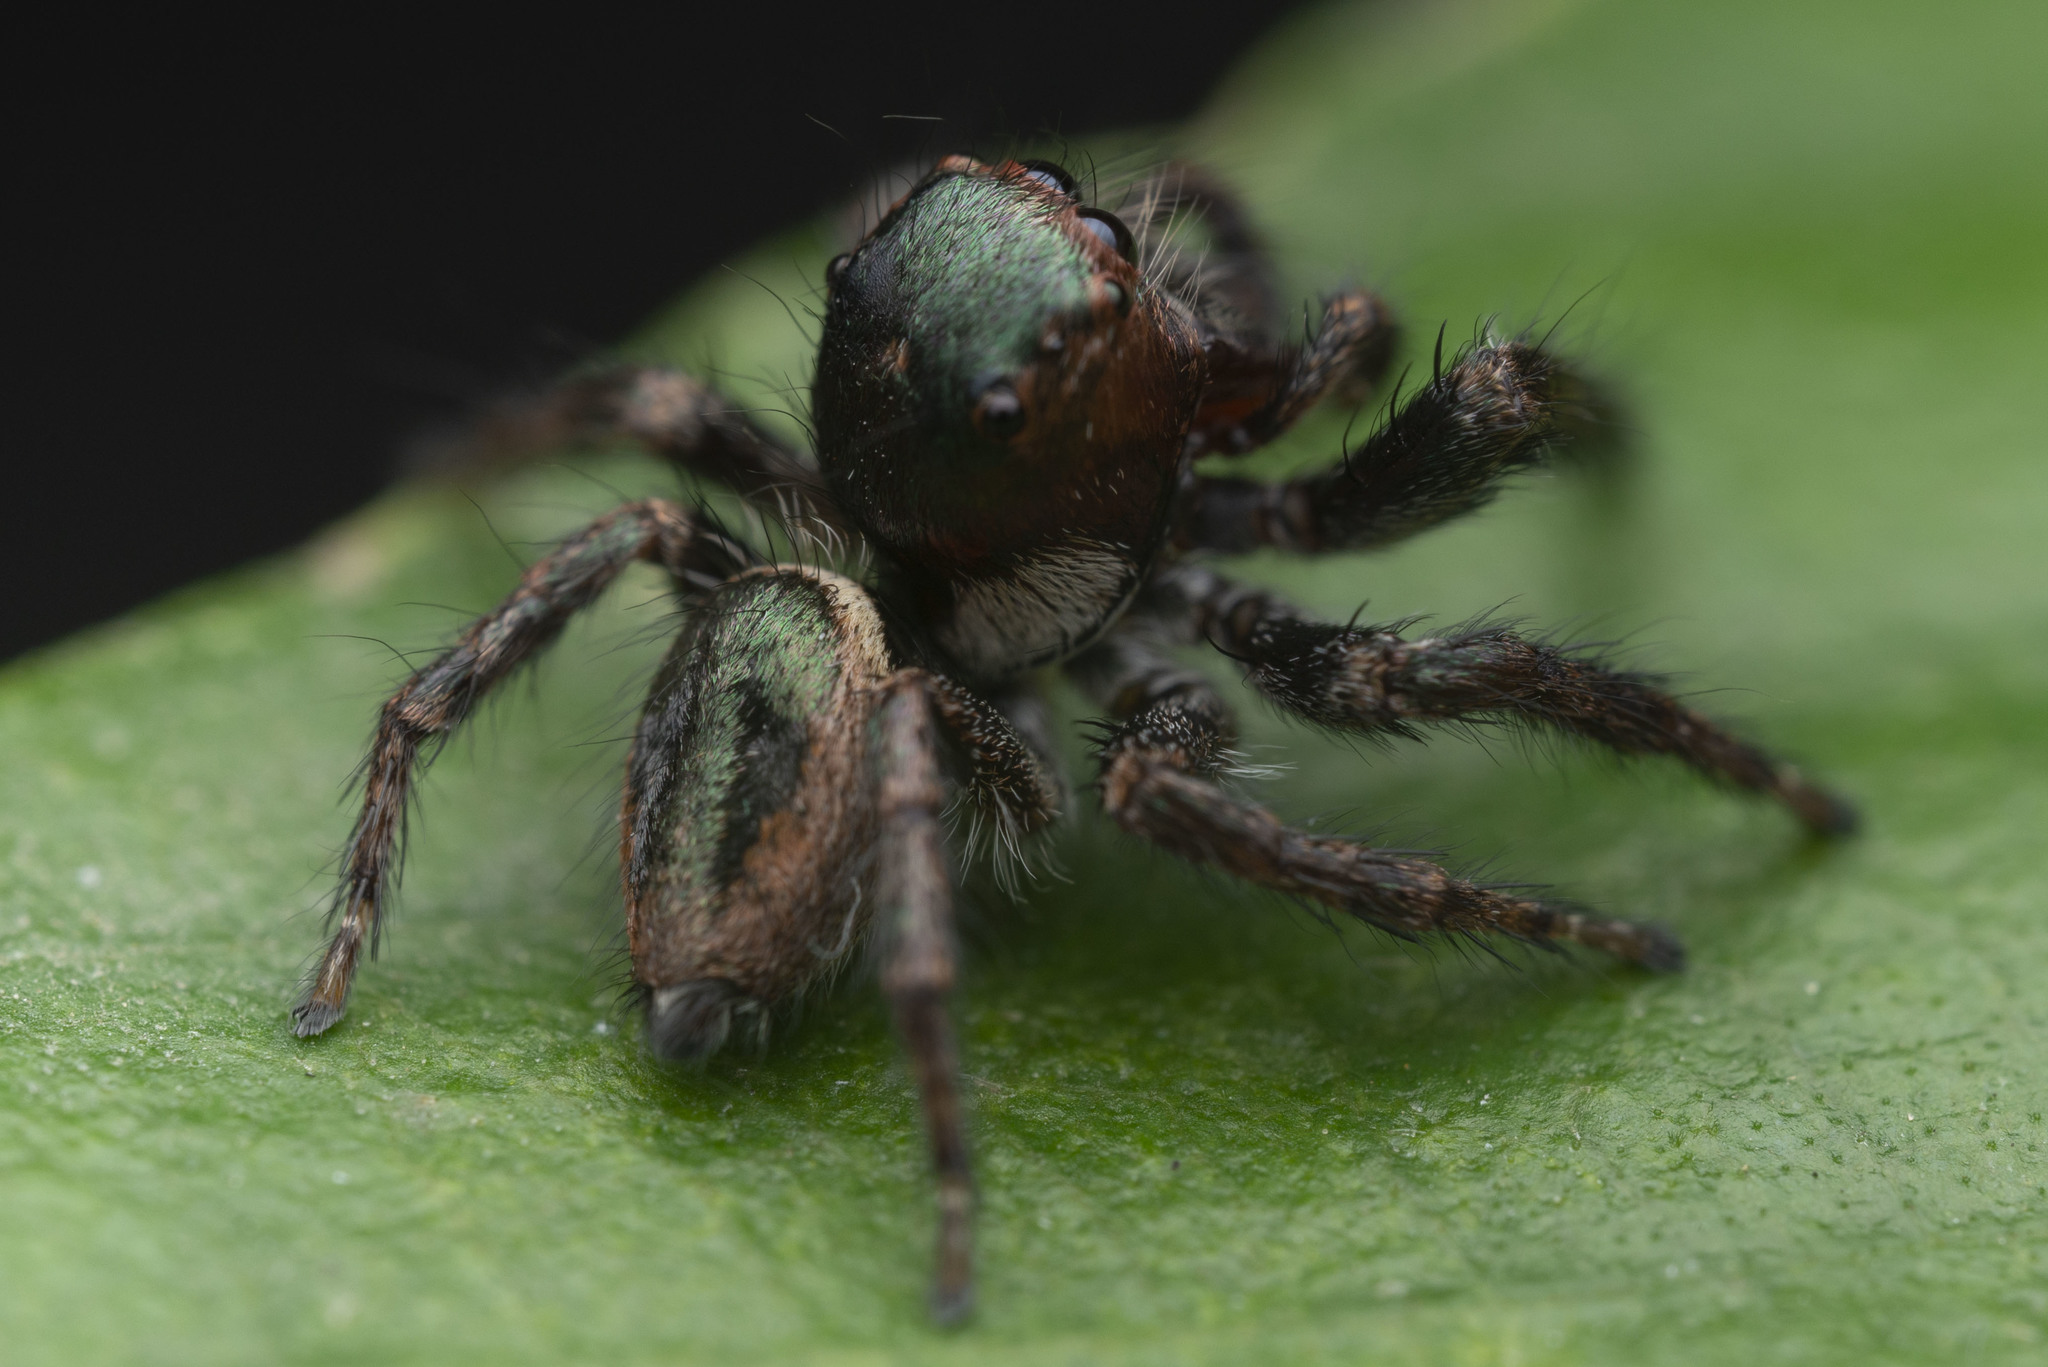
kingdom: Animalia
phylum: Arthropoda
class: Arachnida
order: Araneae
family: Salticidae
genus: Carrhotus
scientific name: Carrhotus viduus
